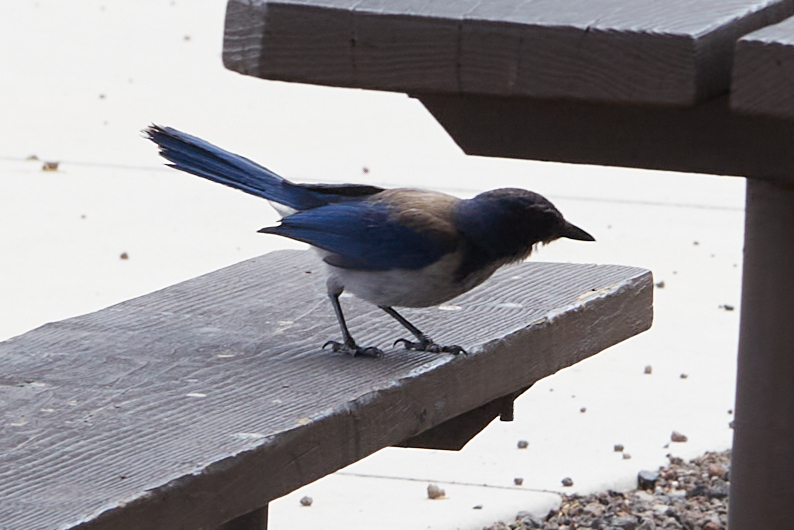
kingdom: Animalia
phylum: Chordata
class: Aves
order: Passeriformes
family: Corvidae
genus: Aphelocoma
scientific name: Aphelocoma californica
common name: California scrub-jay
